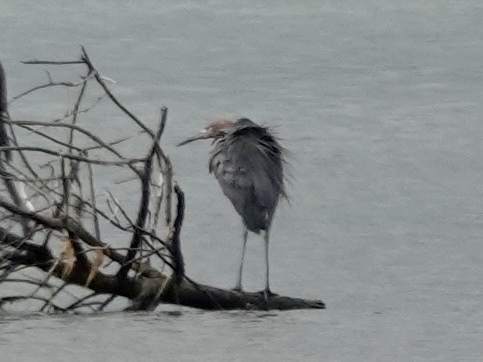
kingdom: Animalia
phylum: Chordata
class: Aves
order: Pelecaniformes
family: Ardeidae
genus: Egretta
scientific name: Egretta rufescens
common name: Reddish egret
